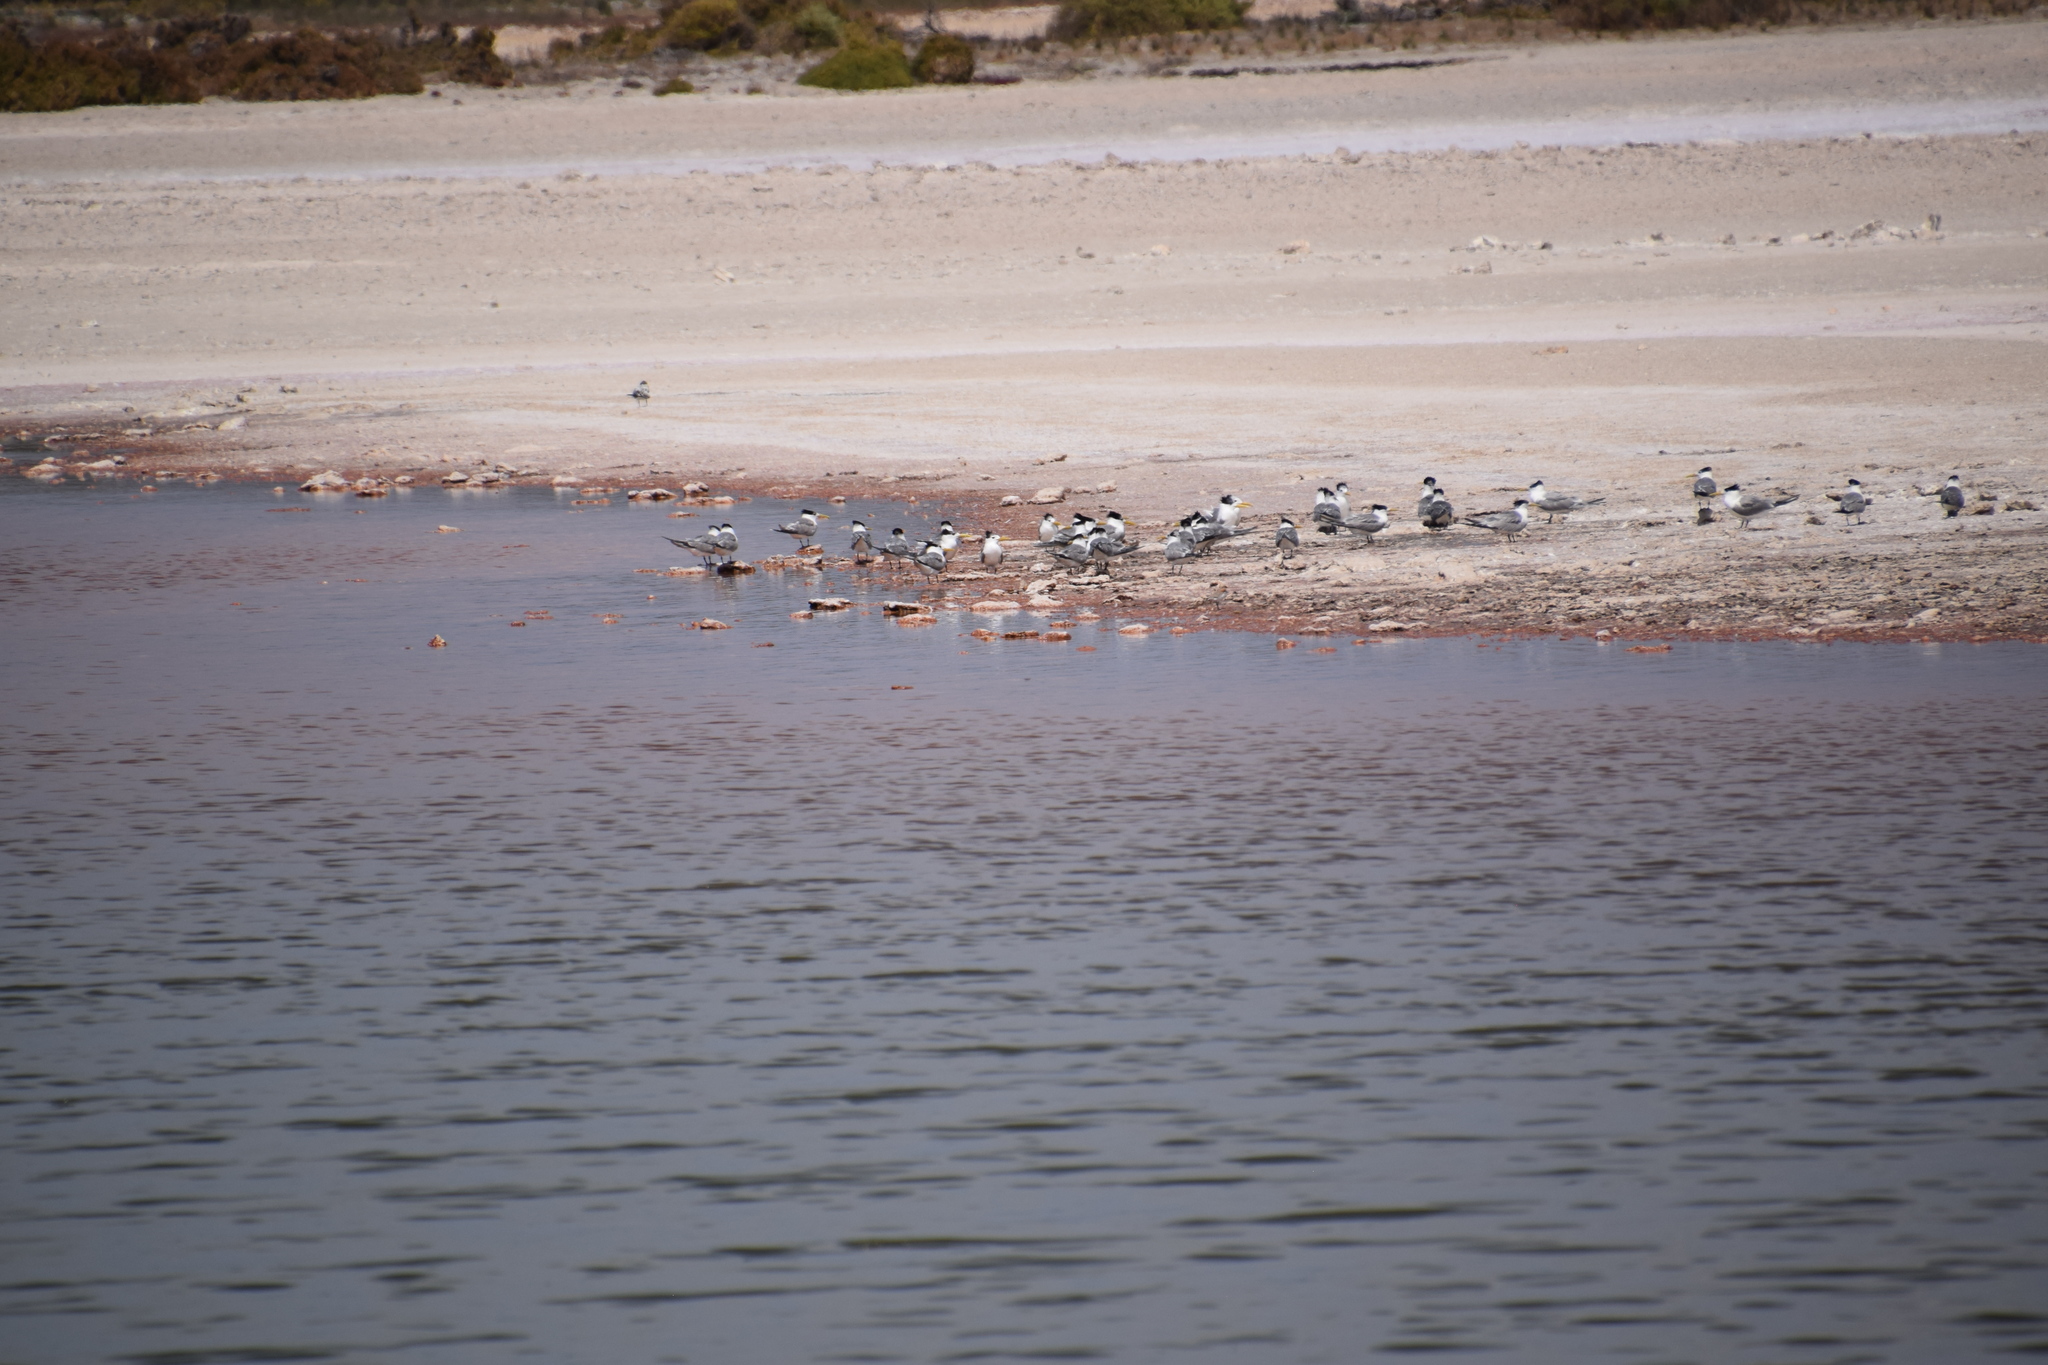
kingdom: Animalia
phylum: Chordata
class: Aves
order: Charadriiformes
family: Laridae
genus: Thalasseus
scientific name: Thalasseus bergii
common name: Greater crested tern
